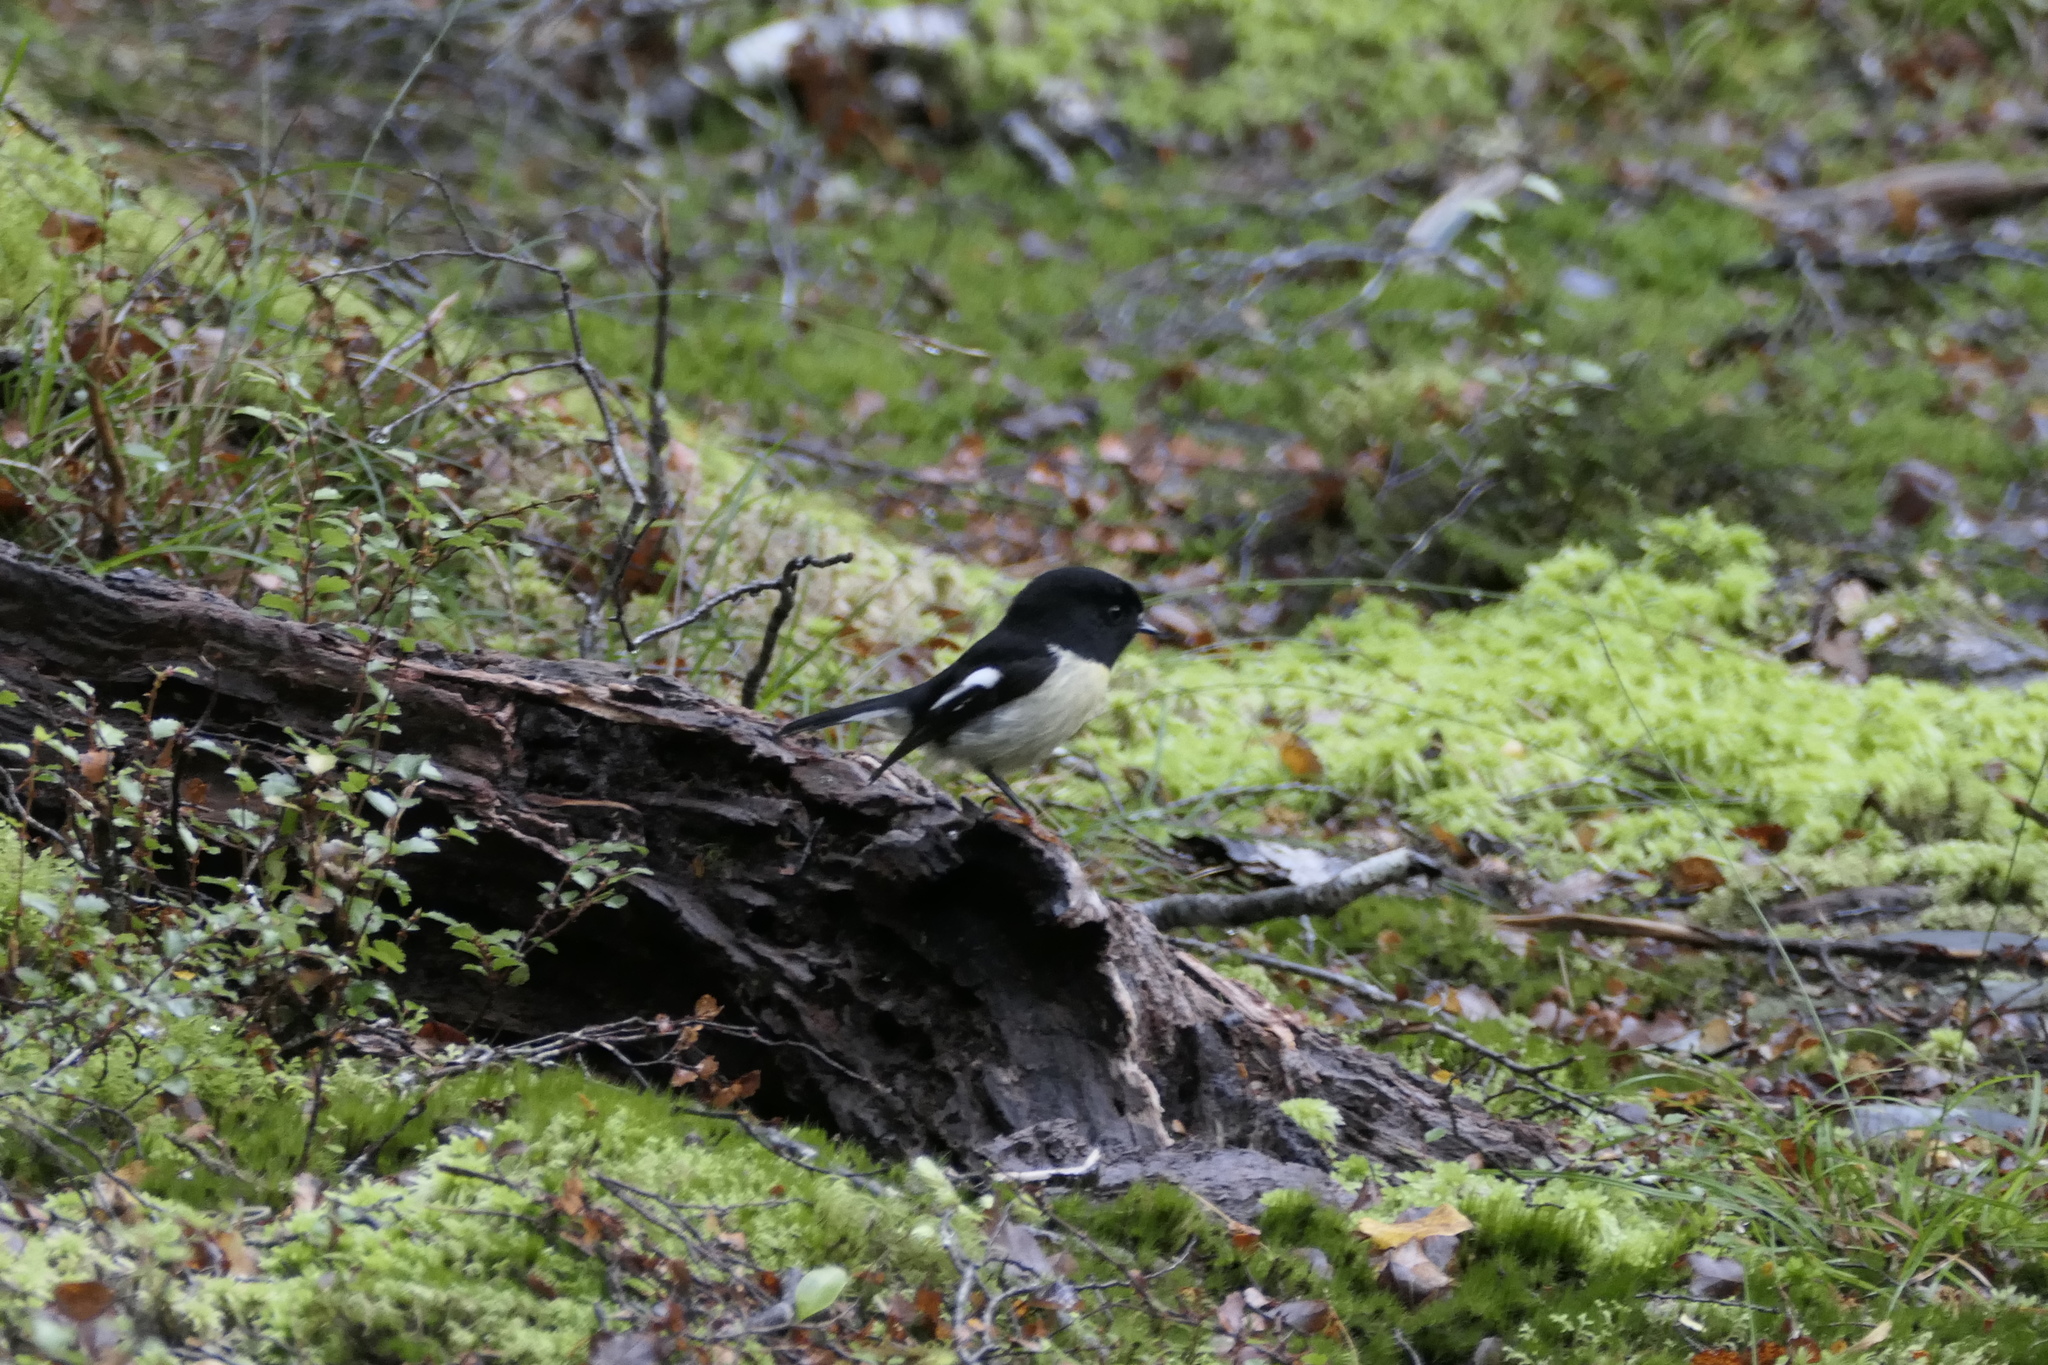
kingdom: Animalia
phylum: Chordata
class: Aves
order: Passeriformes
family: Petroicidae
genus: Petroica
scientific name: Petroica macrocephala
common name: Tomtit
